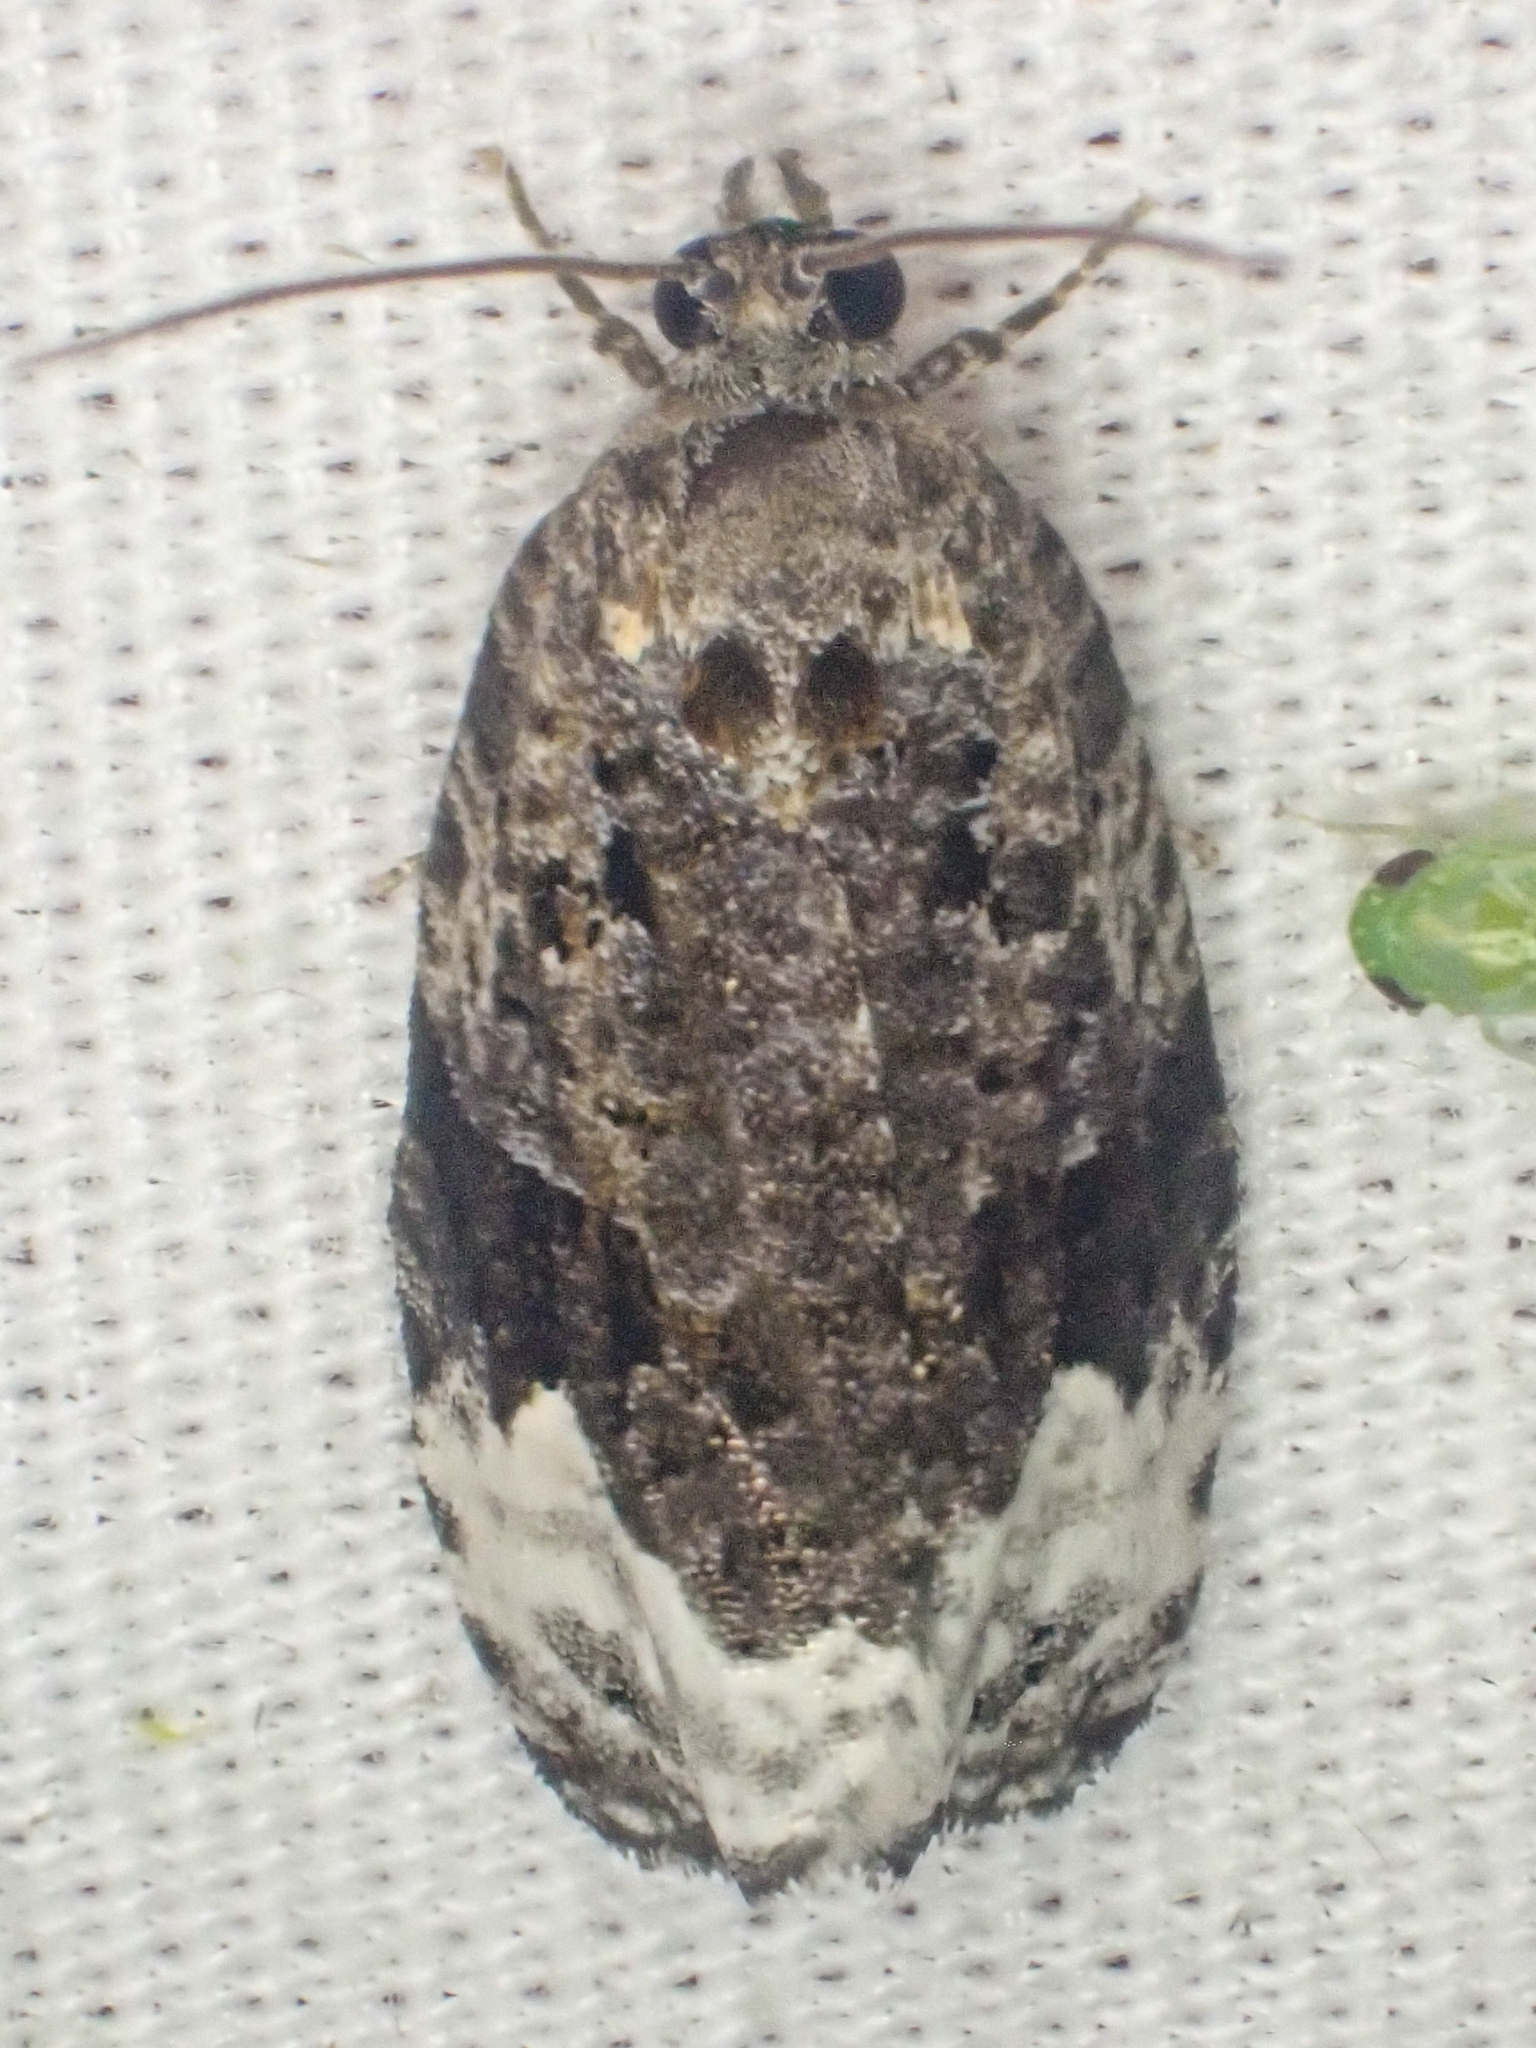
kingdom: Animalia
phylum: Arthropoda
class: Insecta
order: Lepidoptera
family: Tortricidae
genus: Apotomis
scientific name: Apotomis capreana
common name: Sallow marble
